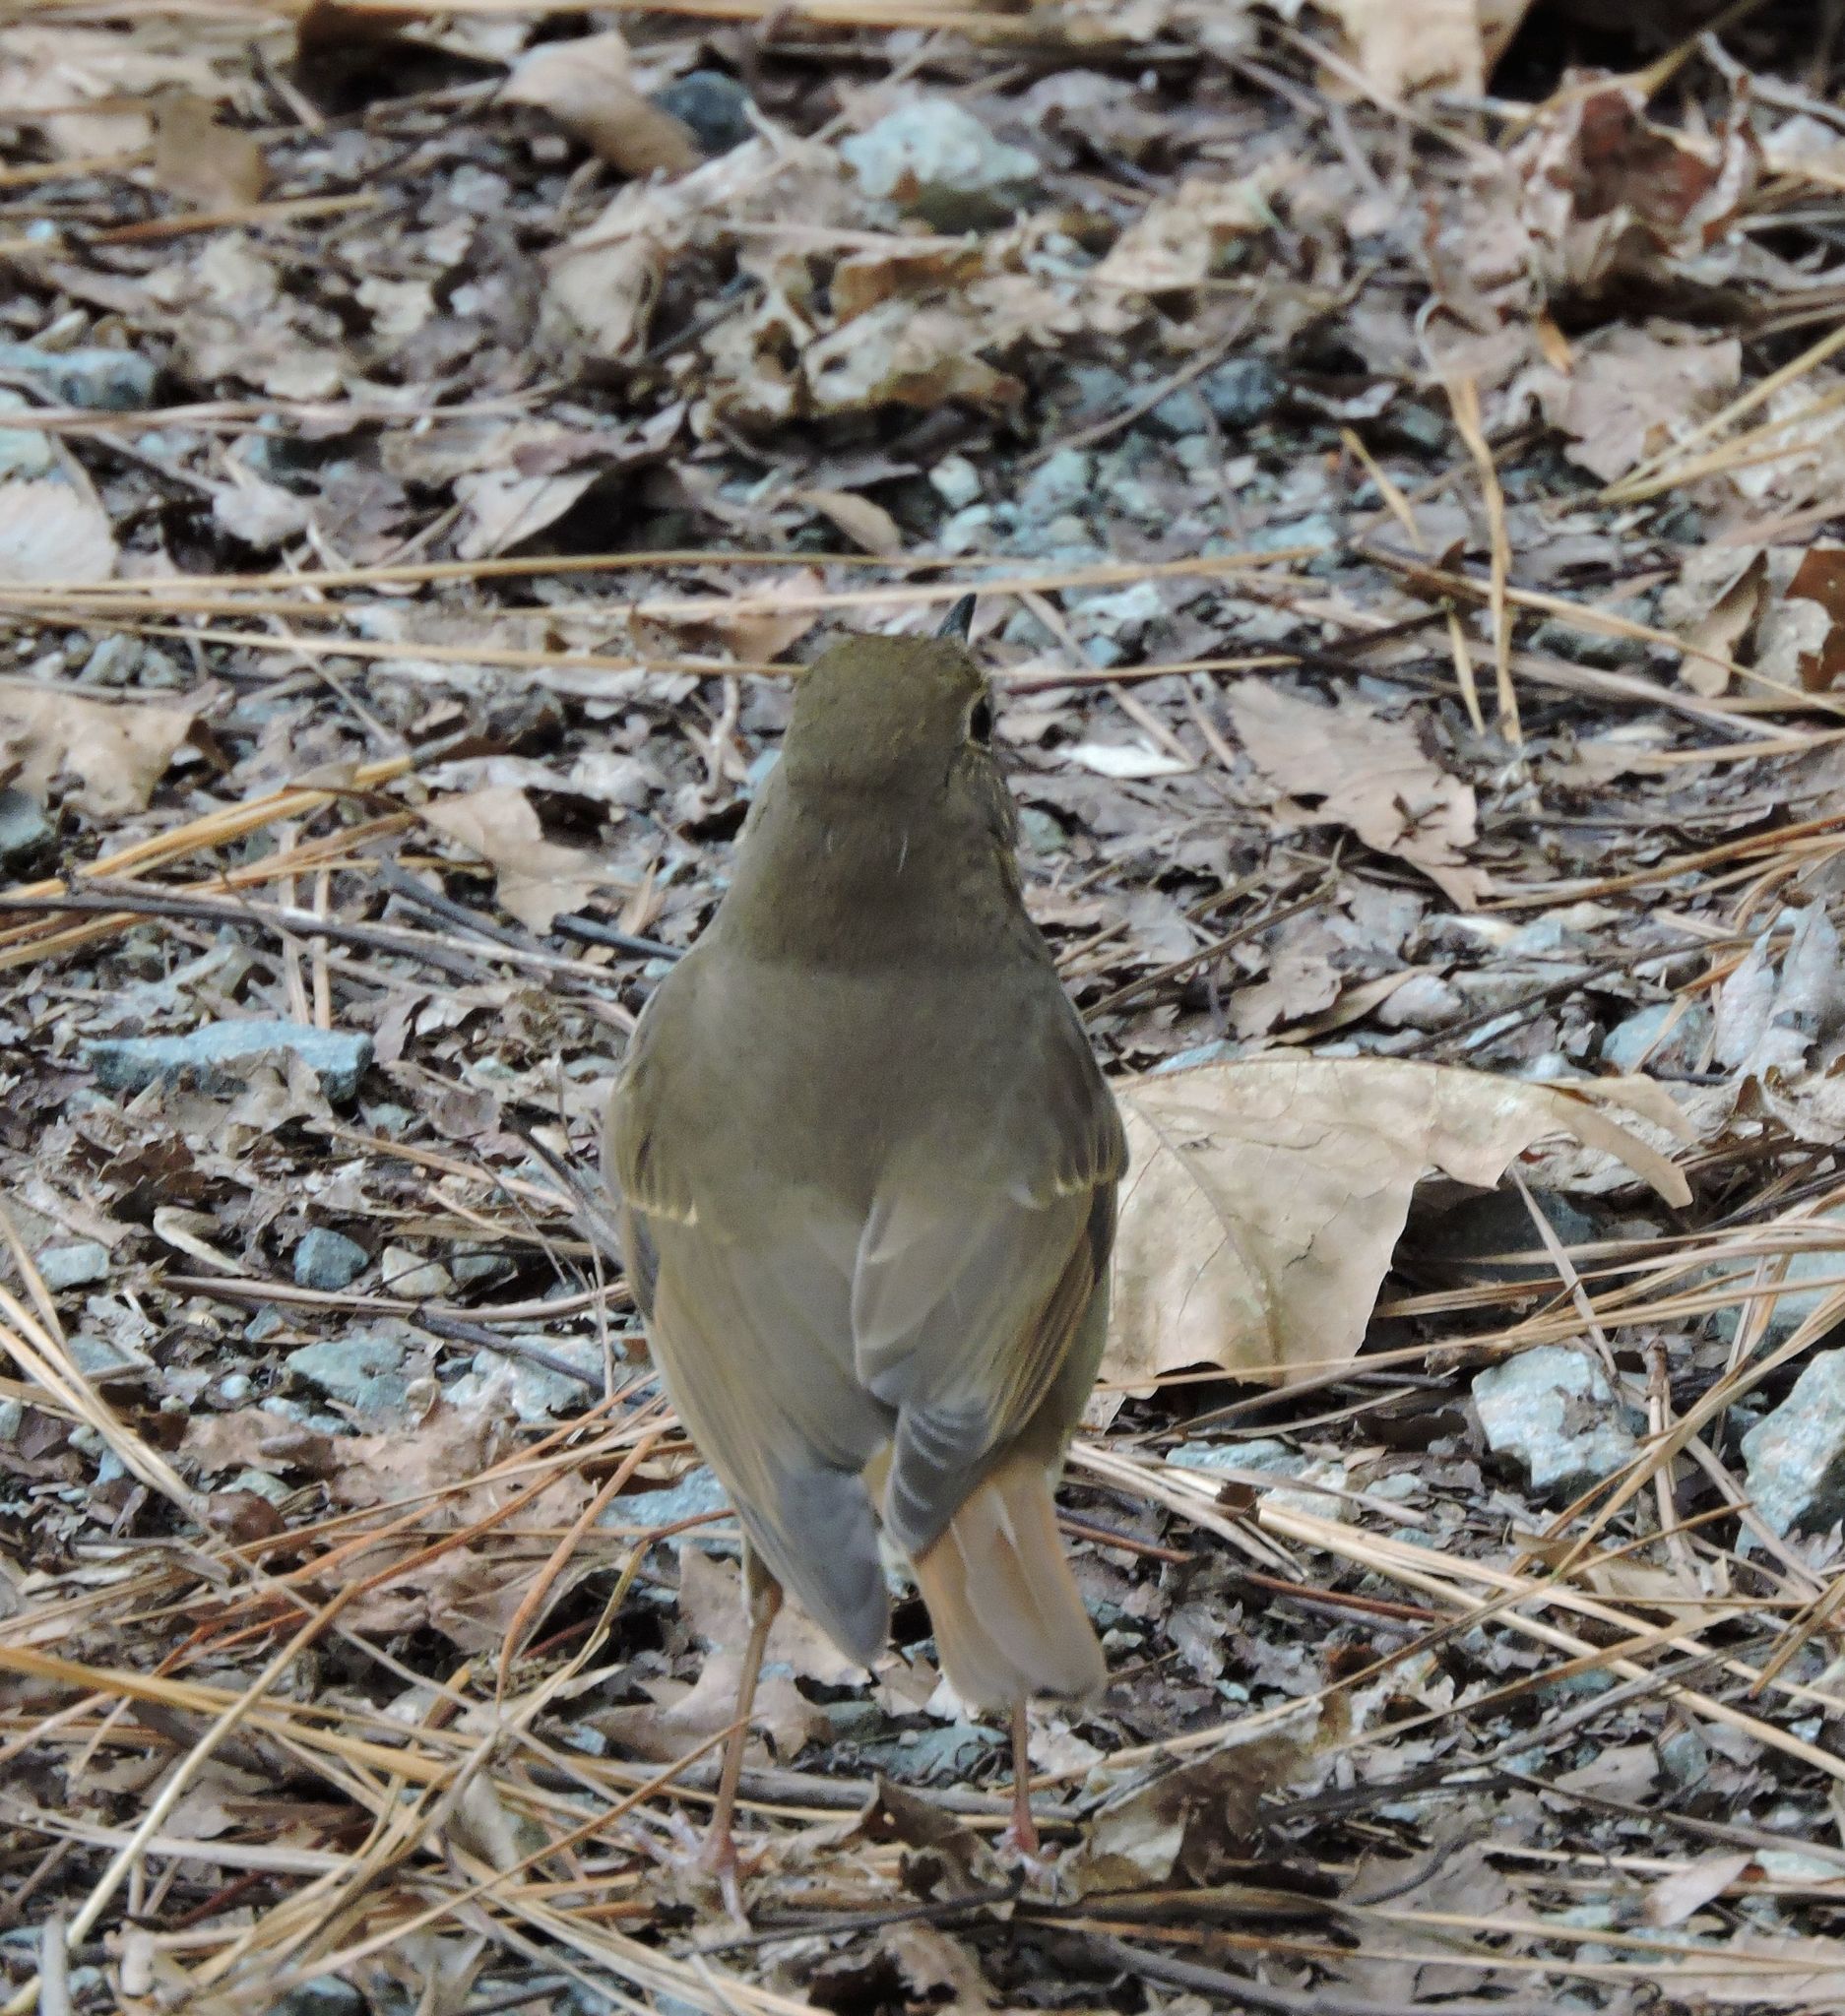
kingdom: Animalia
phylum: Chordata
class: Aves
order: Passeriformes
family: Turdidae
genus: Catharus
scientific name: Catharus guttatus
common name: Hermit thrush
